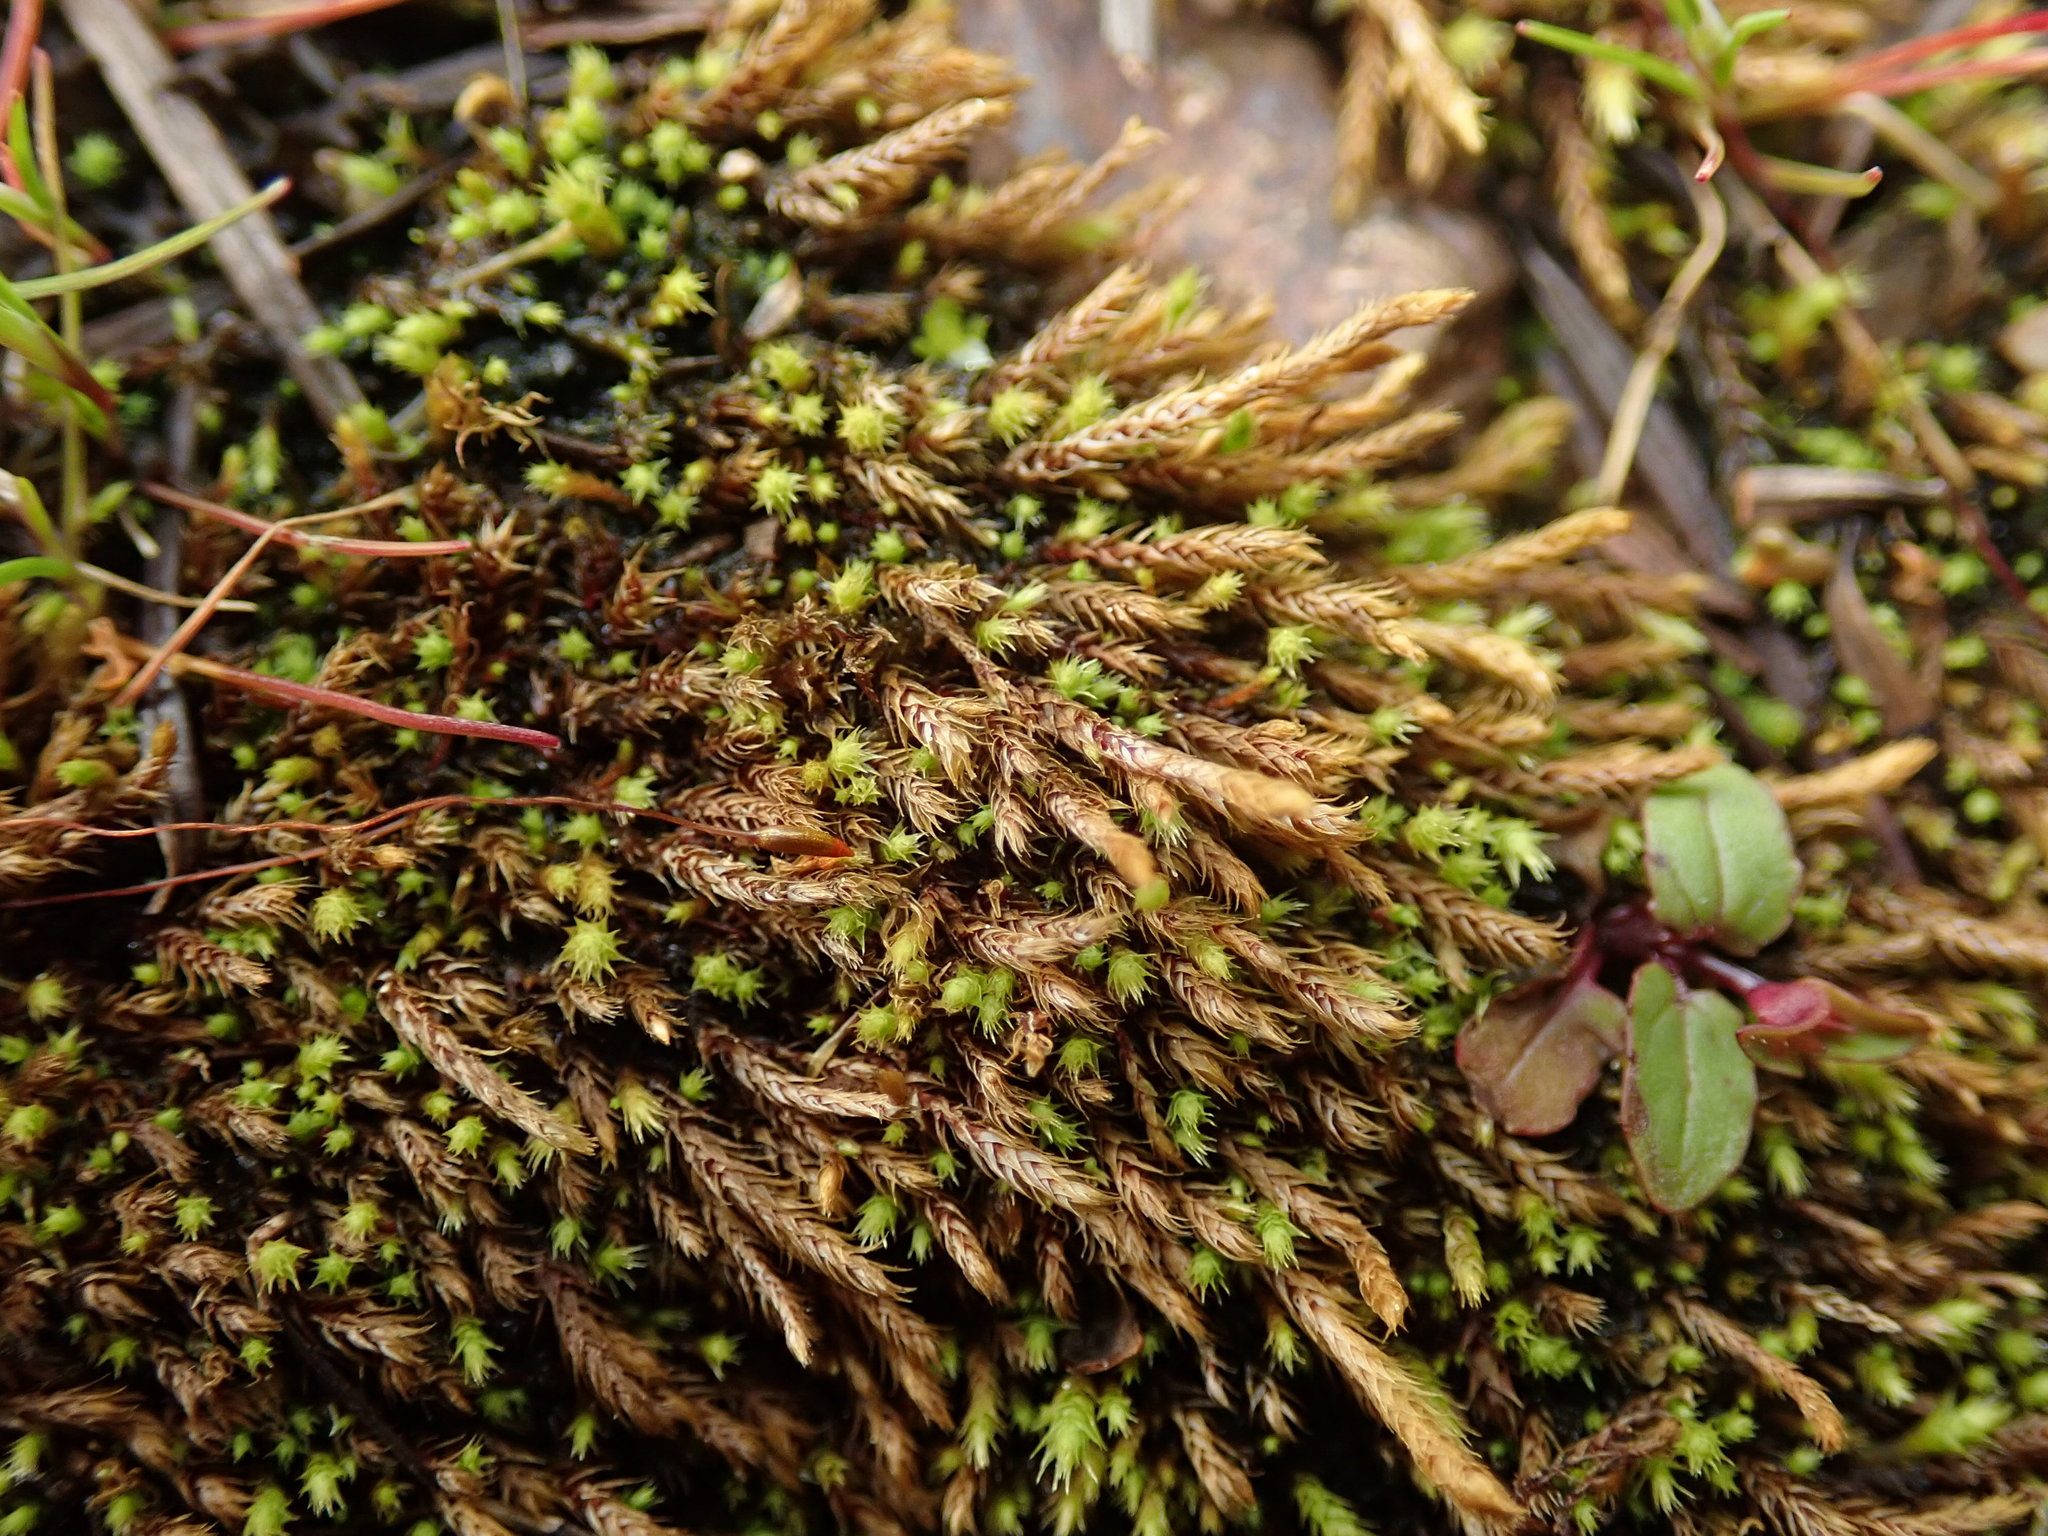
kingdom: Plantae
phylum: Bryophyta
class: Bryopsida
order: Bartramiales
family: Bartramiaceae
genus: Philonotis
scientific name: Philonotis fontana
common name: Fountain apple-moss
